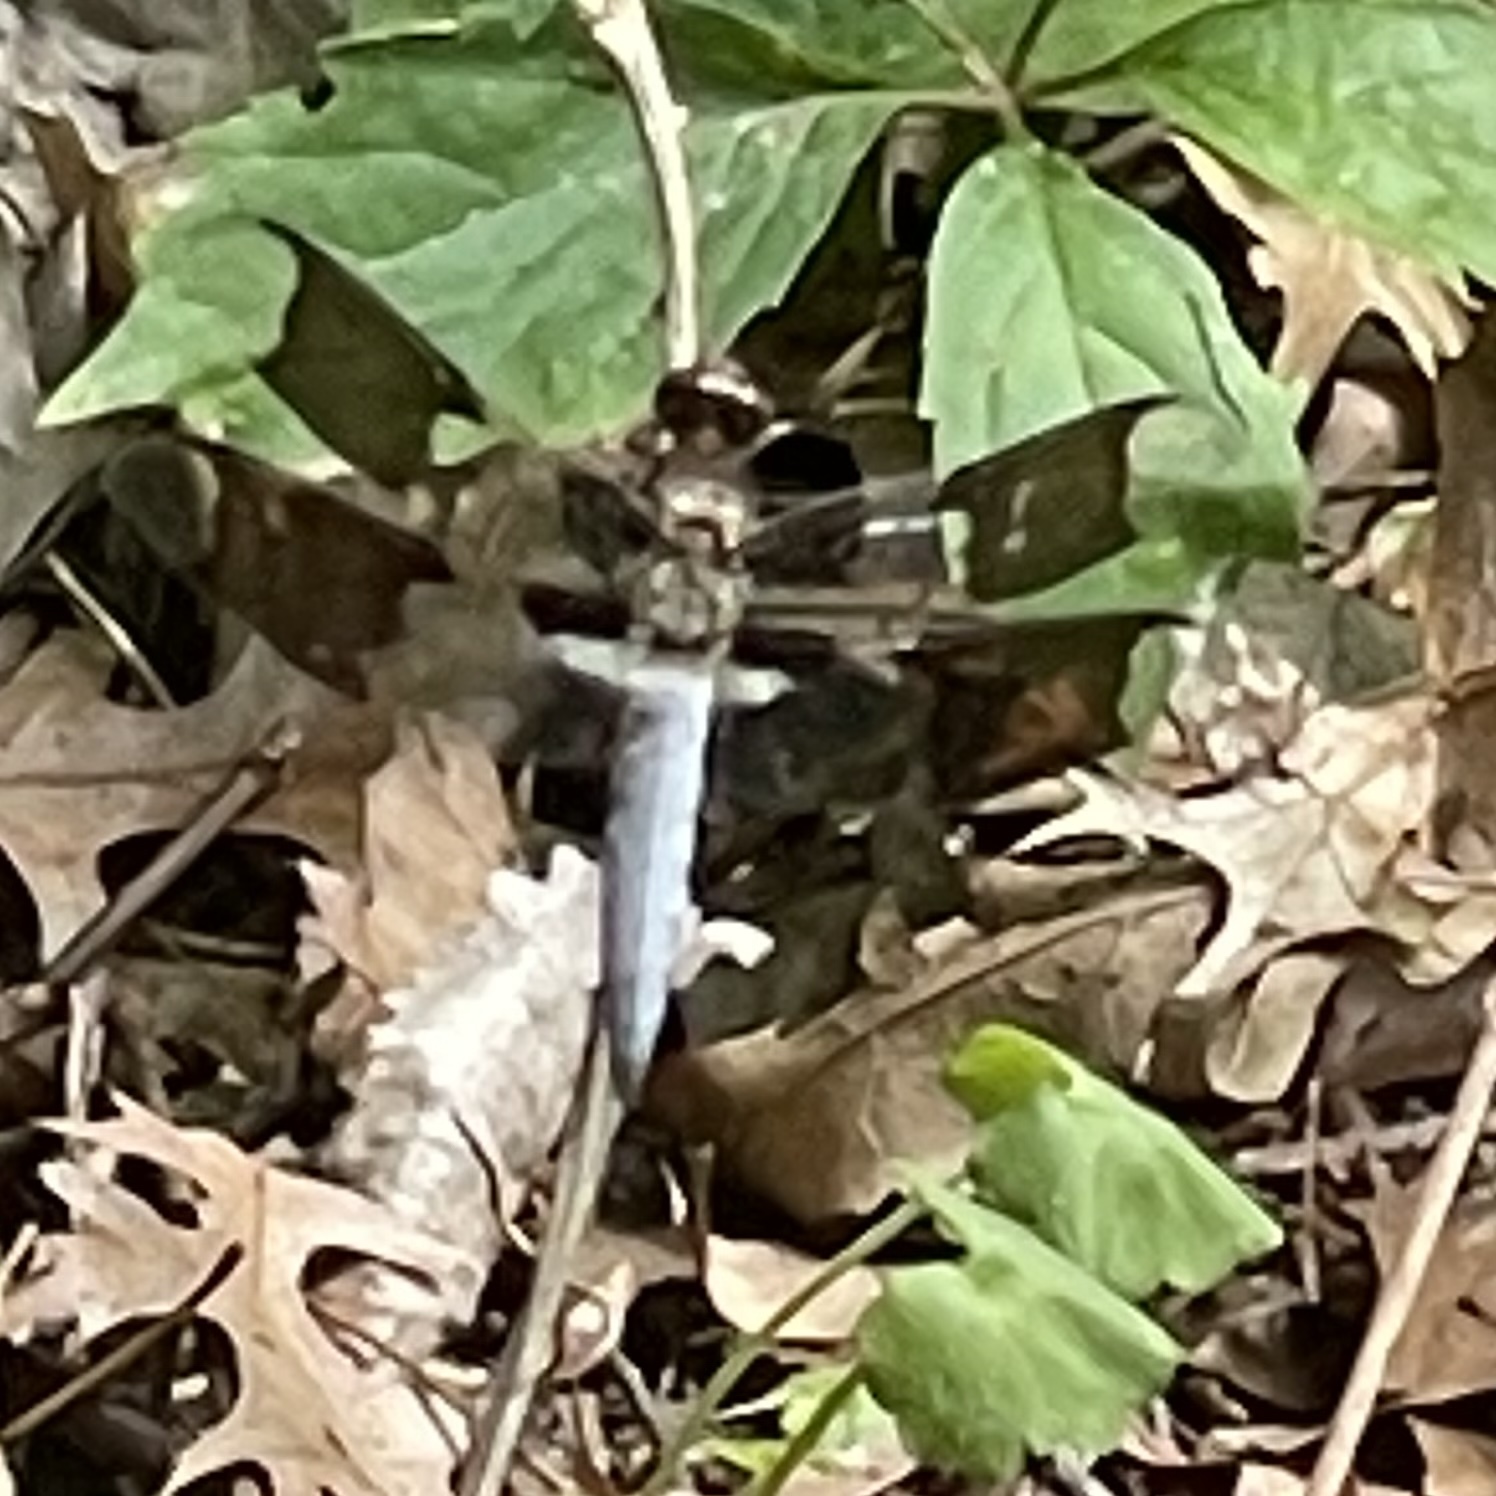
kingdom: Animalia
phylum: Arthropoda
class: Insecta
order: Odonata
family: Libellulidae
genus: Plathemis
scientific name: Plathemis lydia
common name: Common whitetail
